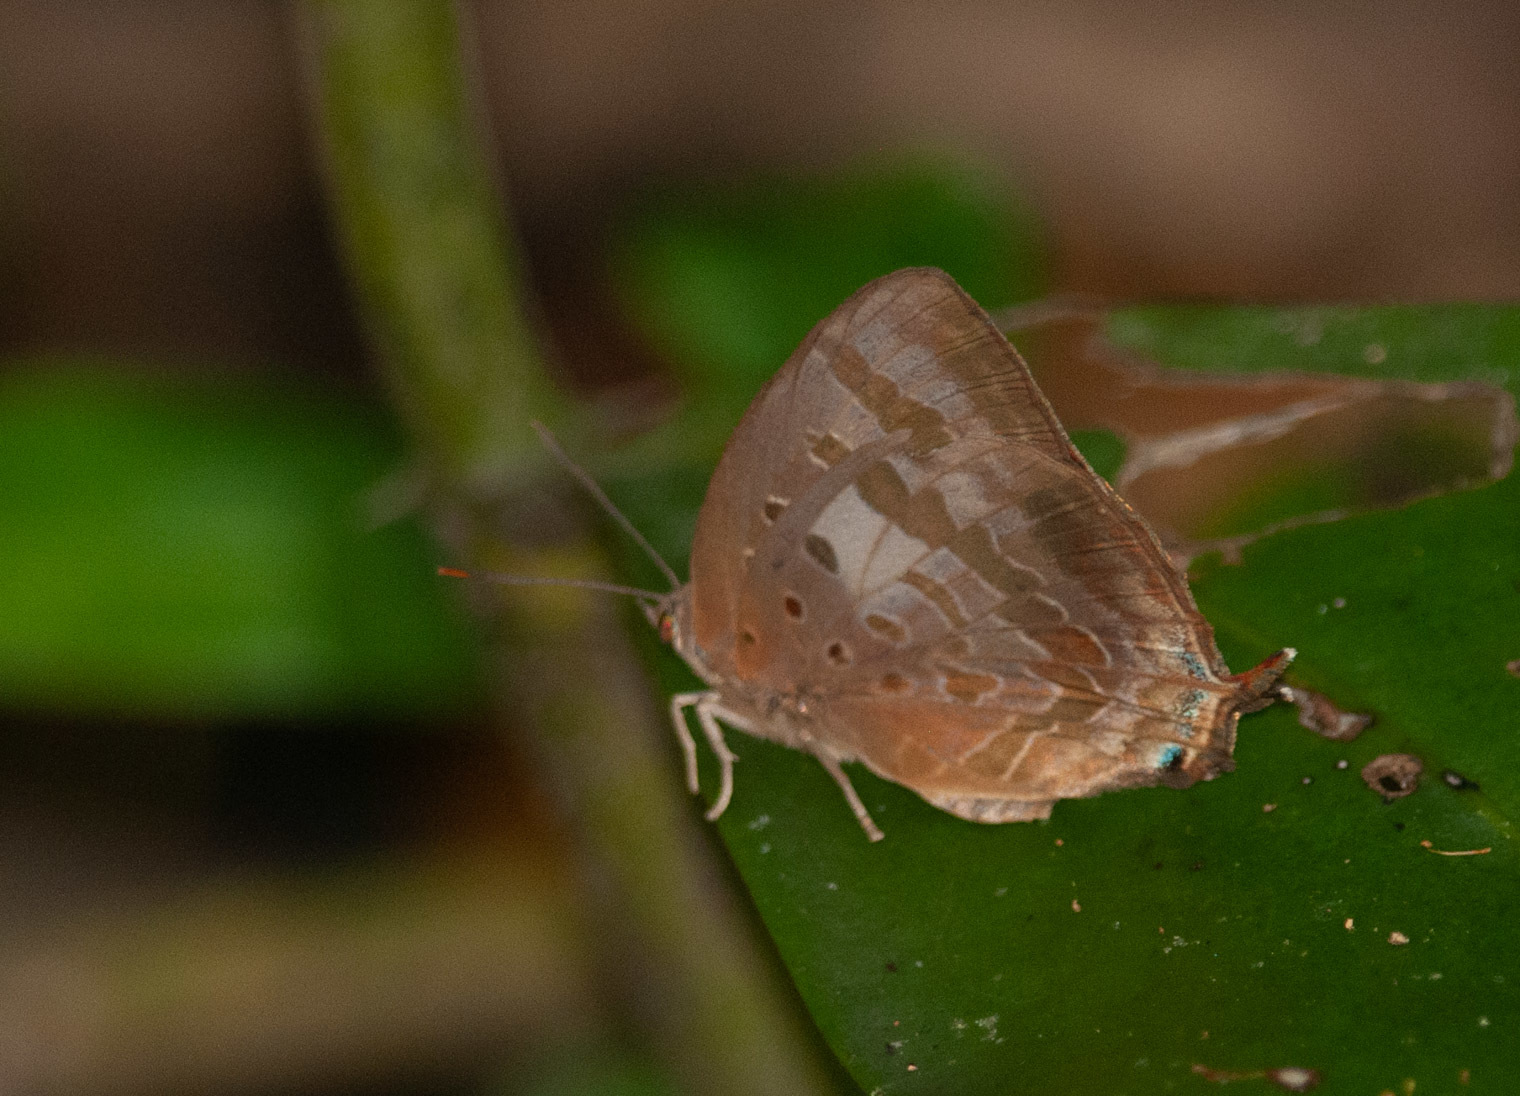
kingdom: Animalia
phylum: Arthropoda
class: Insecta
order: Lepidoptera
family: Lycaenidae
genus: Arhopala
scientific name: Arhopala madytus
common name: Bright oak-blue
